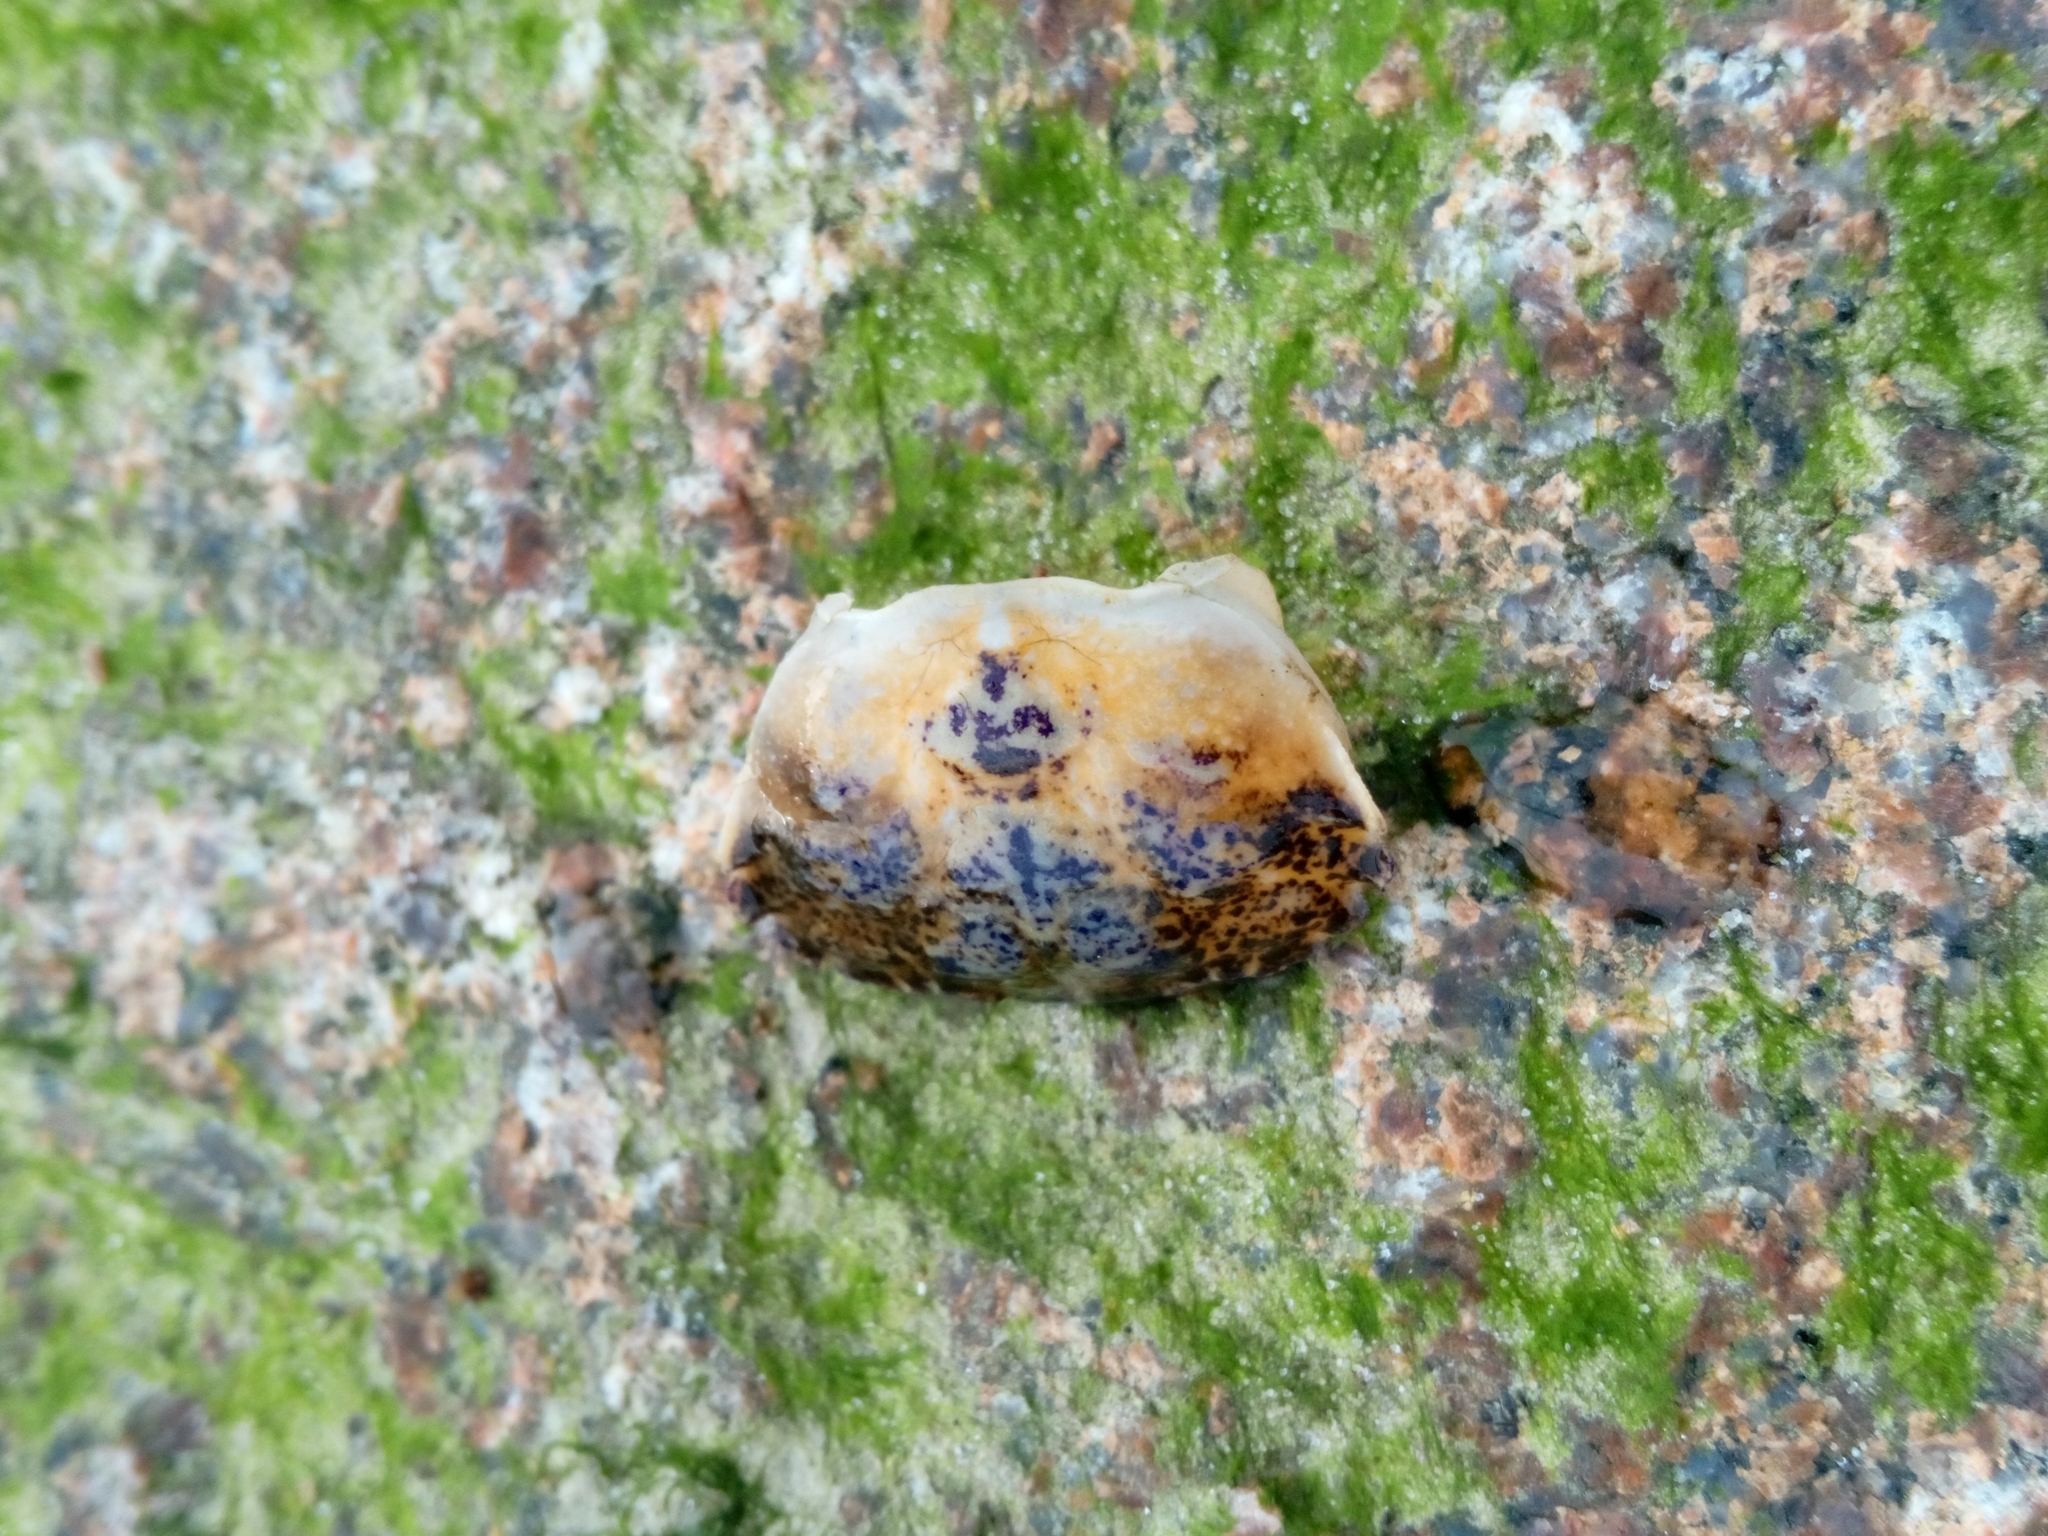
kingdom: Animalia
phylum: Arthropoda
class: Malacostraca
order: Decapoda
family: Panopeidae
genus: Rhithropanopeus
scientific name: Rhithropanopeus harrisii
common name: Dwarf crab
